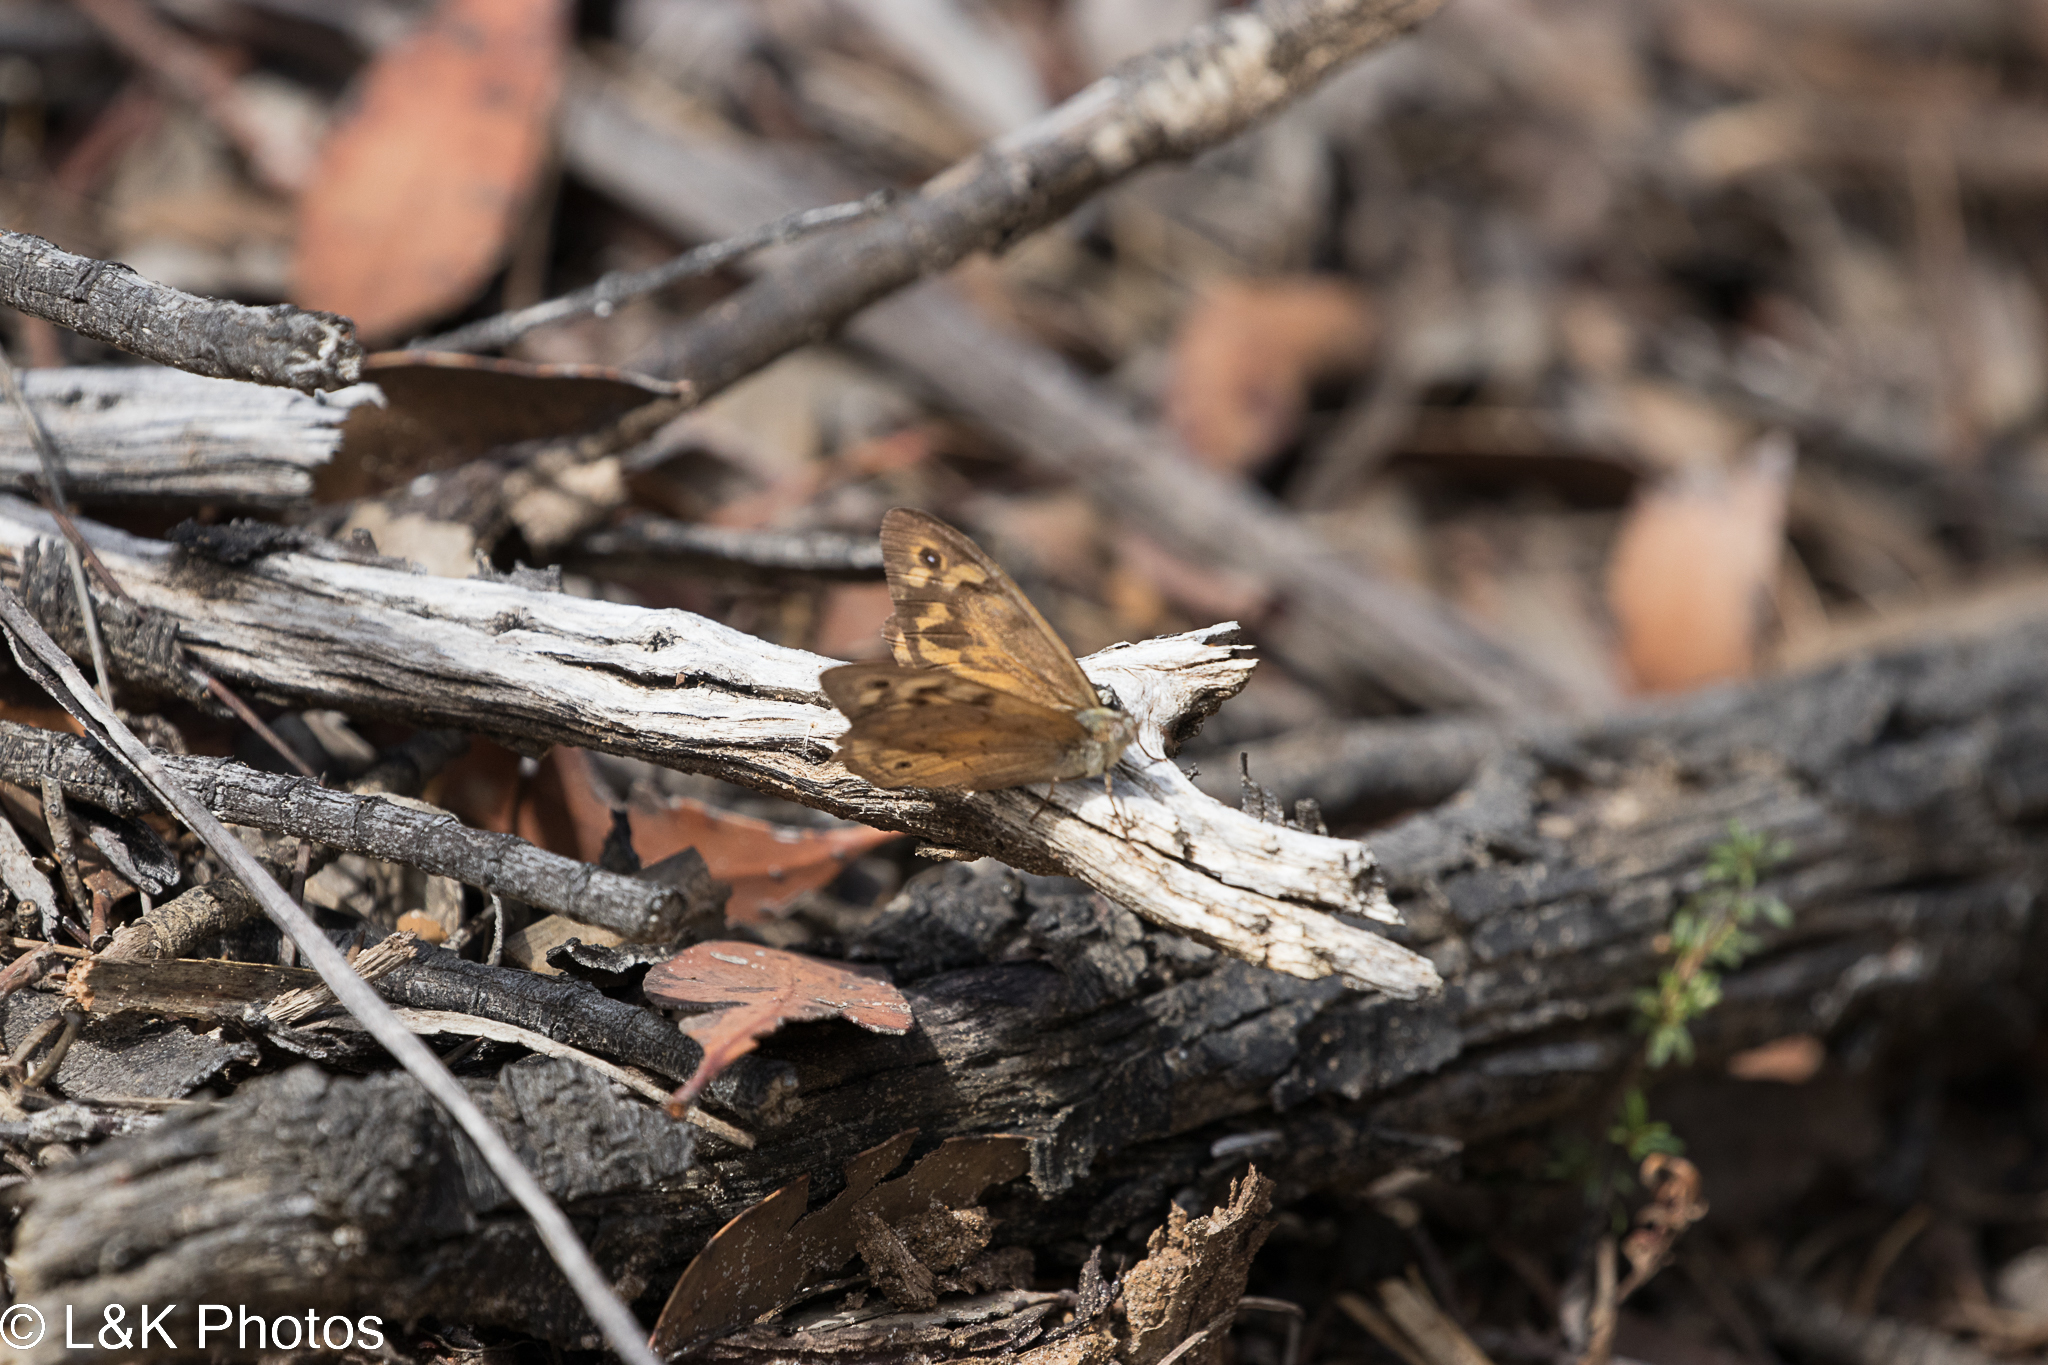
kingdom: Animalia
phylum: Arthropoda
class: Insecta
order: Lepidoptera
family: Nymphalidae
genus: Heteronympha
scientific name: Heteronympha merope
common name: Common brown
